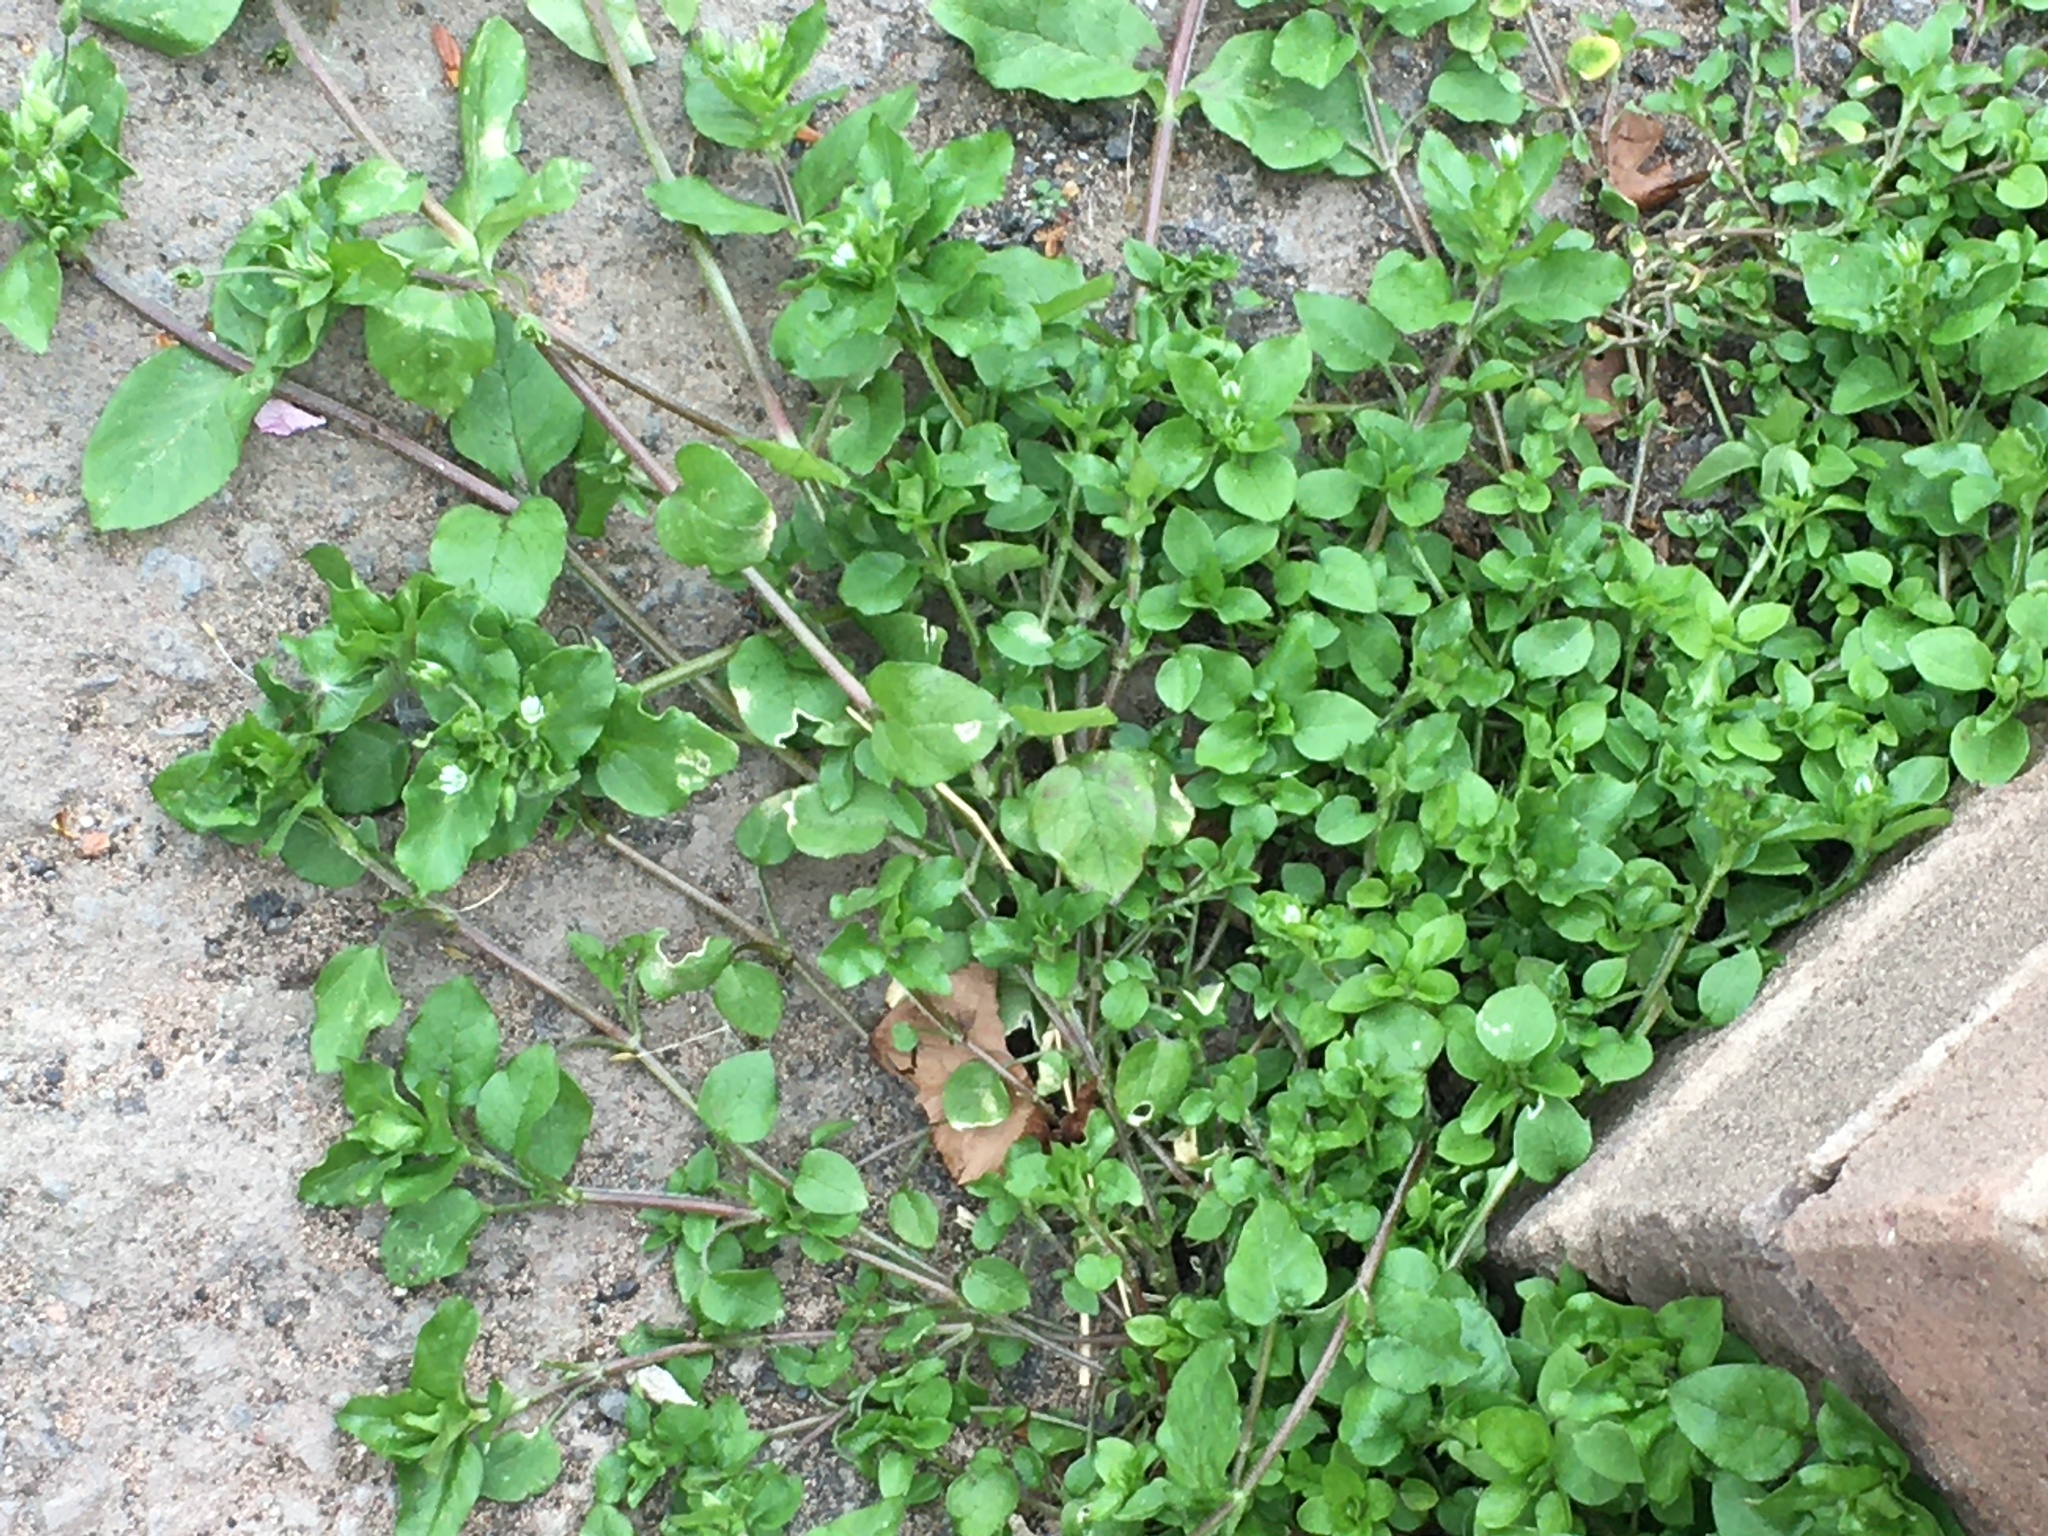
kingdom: Plantae
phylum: Tracheophyta
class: Magnoliopsida
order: Caryophyllales
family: Caryophyllaceae
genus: Stellaria
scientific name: Stellaria media
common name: Common chickweed
